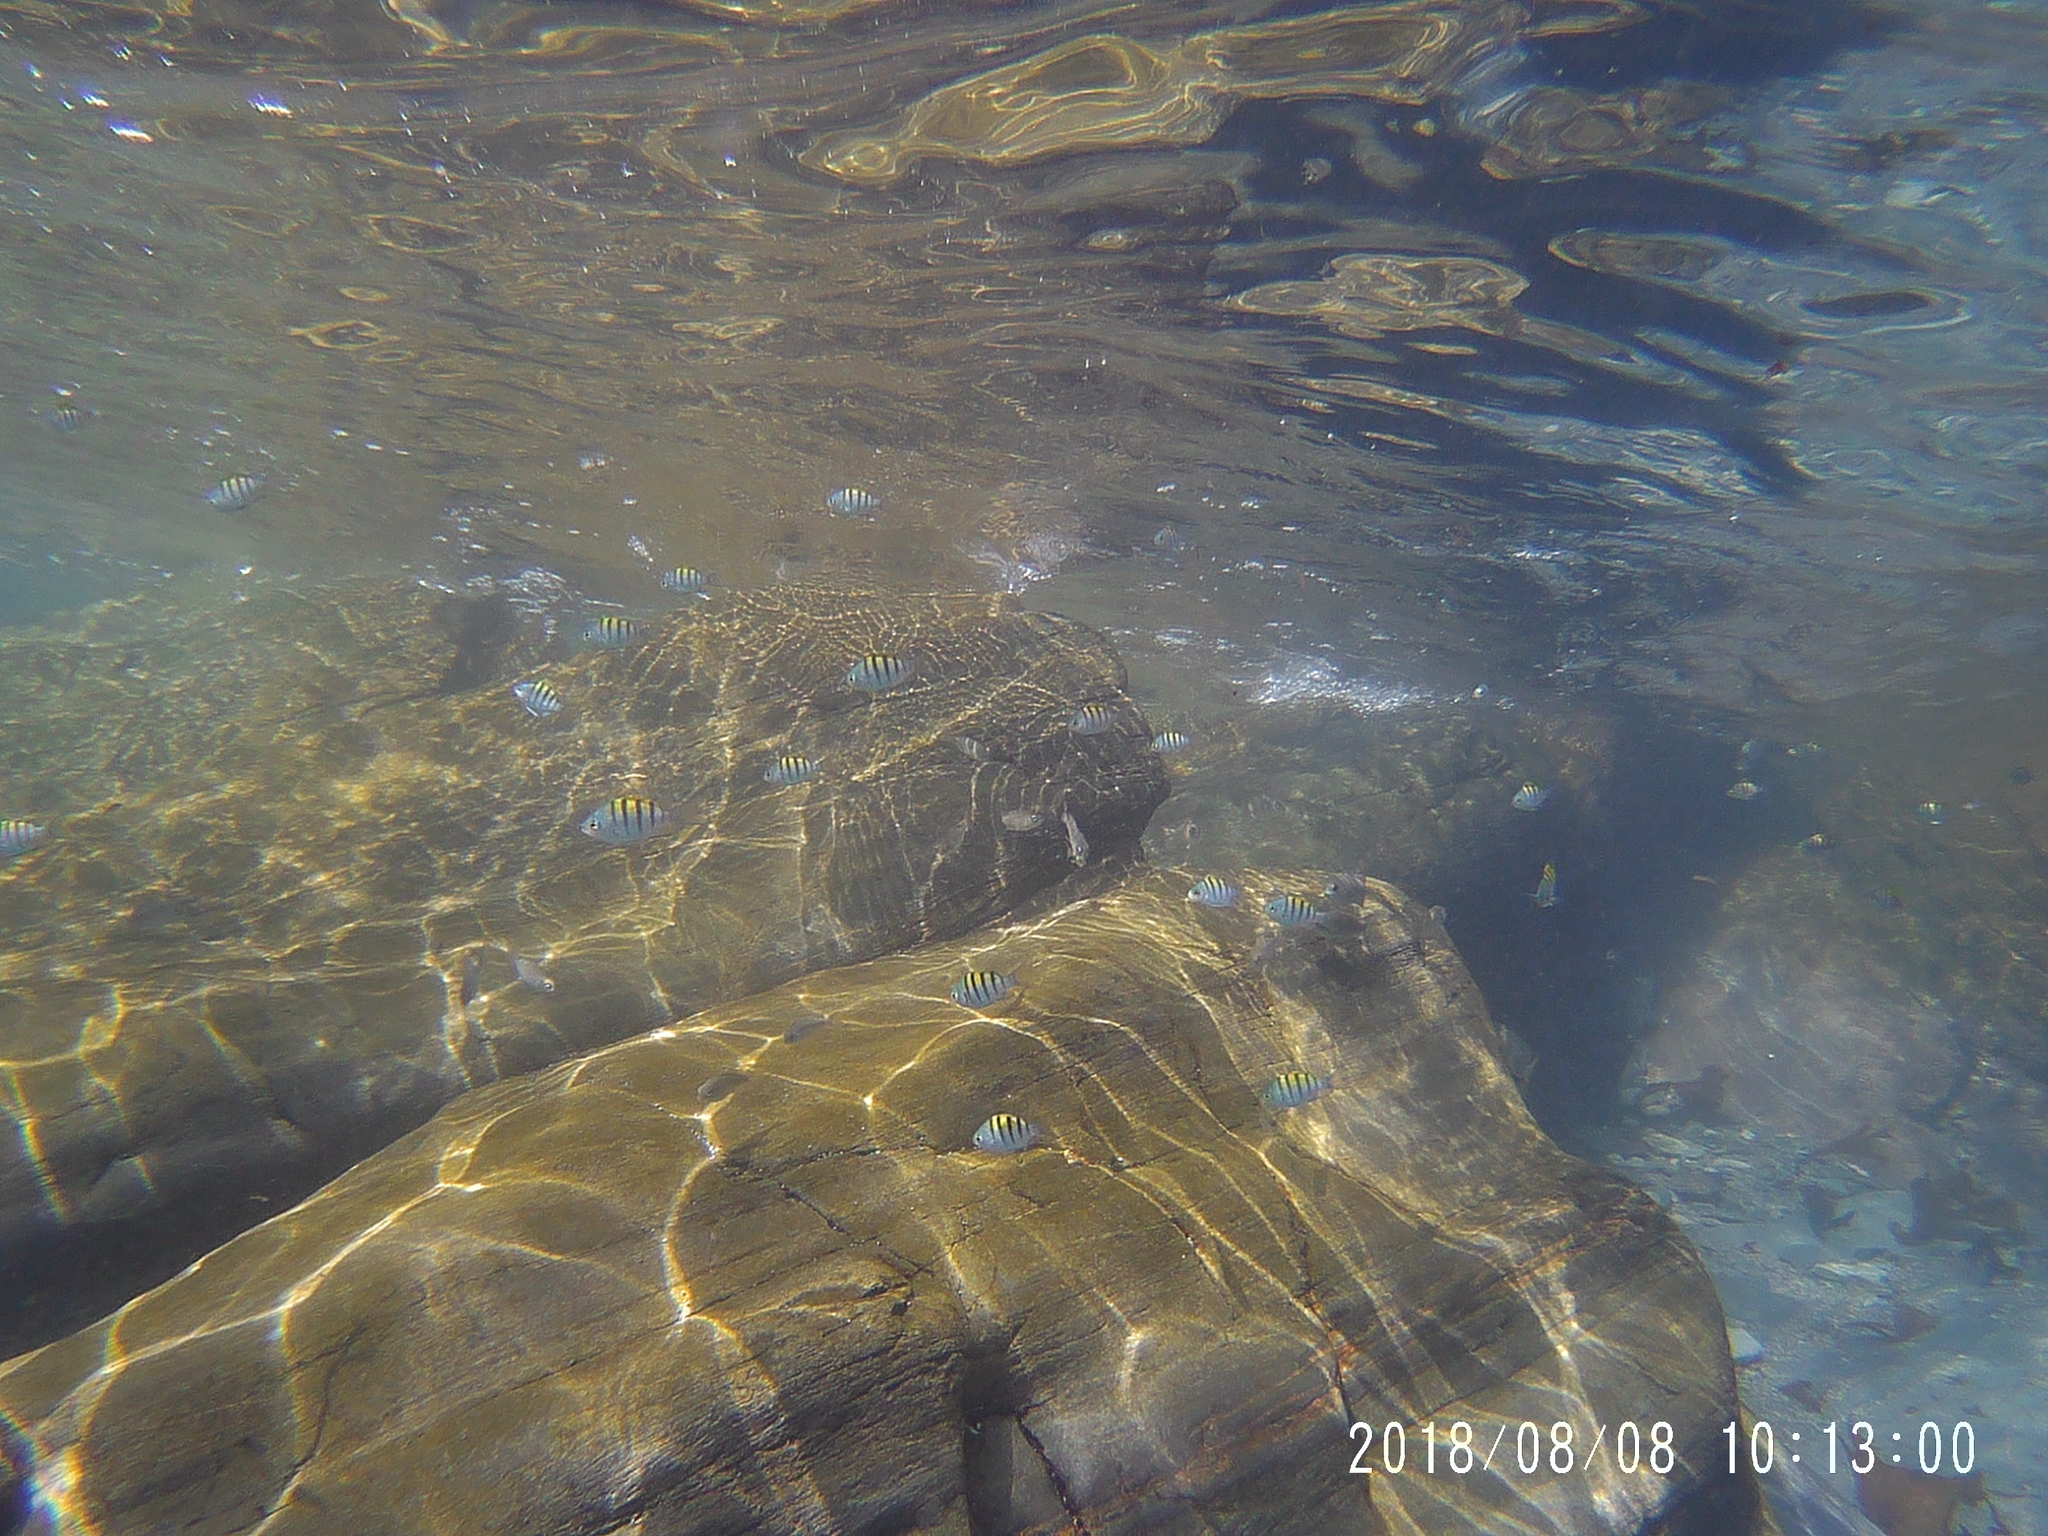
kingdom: Animalia
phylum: Chordata
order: Perciformes
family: Pomacentridae
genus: Abudefduf
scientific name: Abudefduf troschelii
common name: Panamic sergeant major
